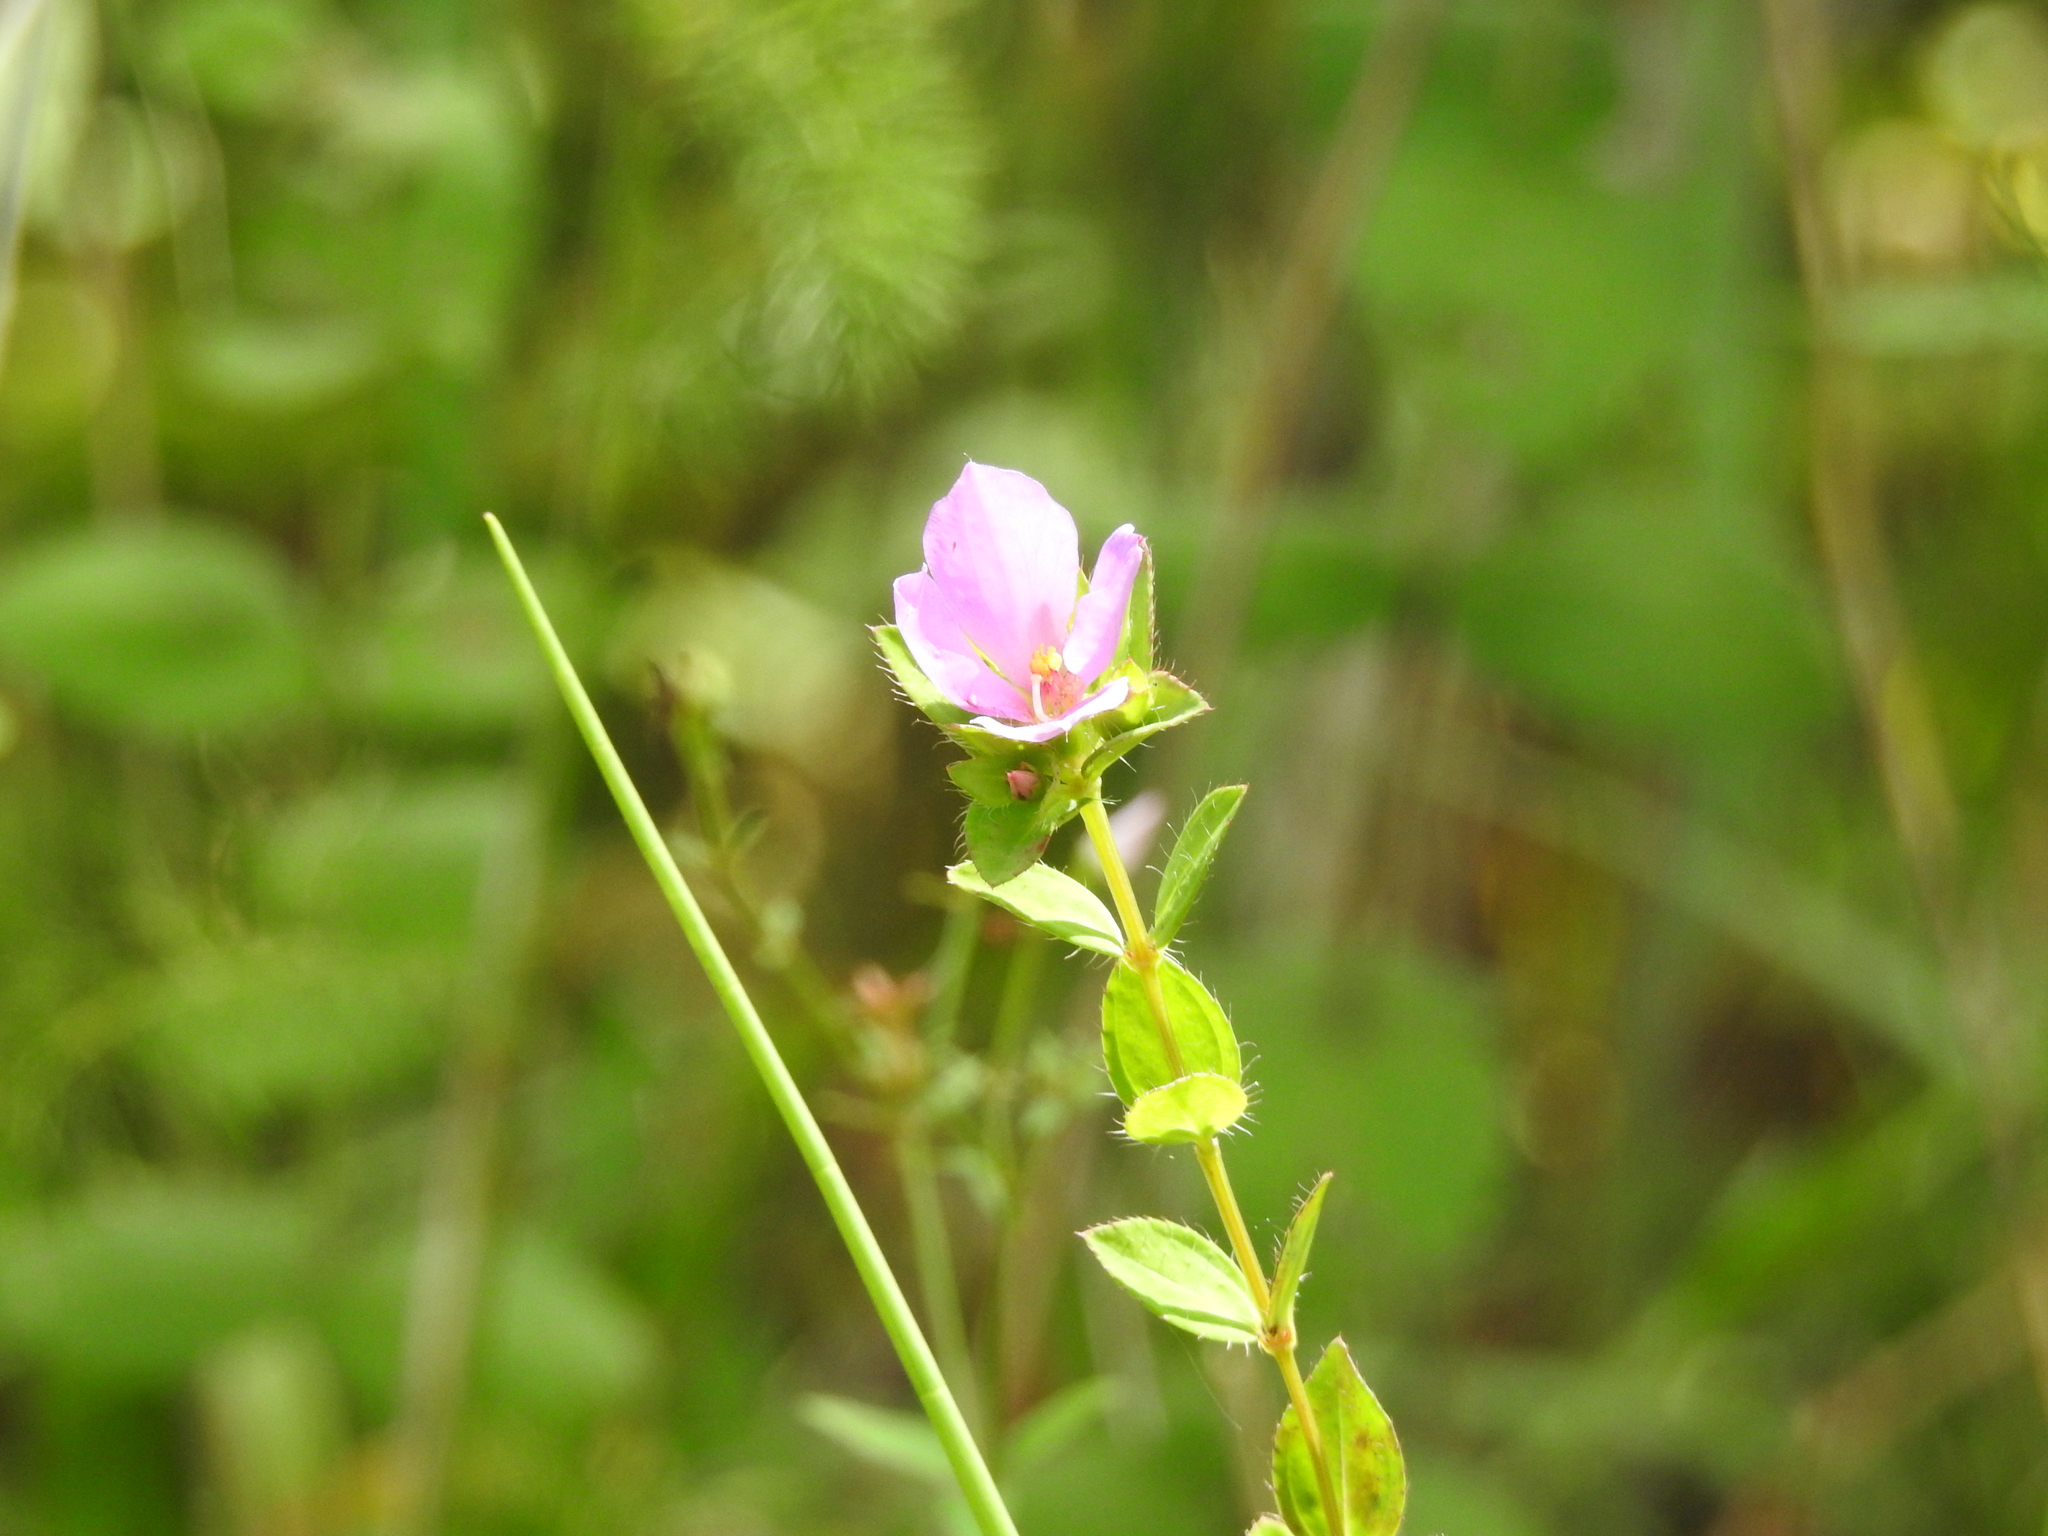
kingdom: Plantae
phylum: Tracheophyta
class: Magnoliopsida
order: Myrtales
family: Melastomataceae
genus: Rhexia
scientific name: Rhexia petiolata
